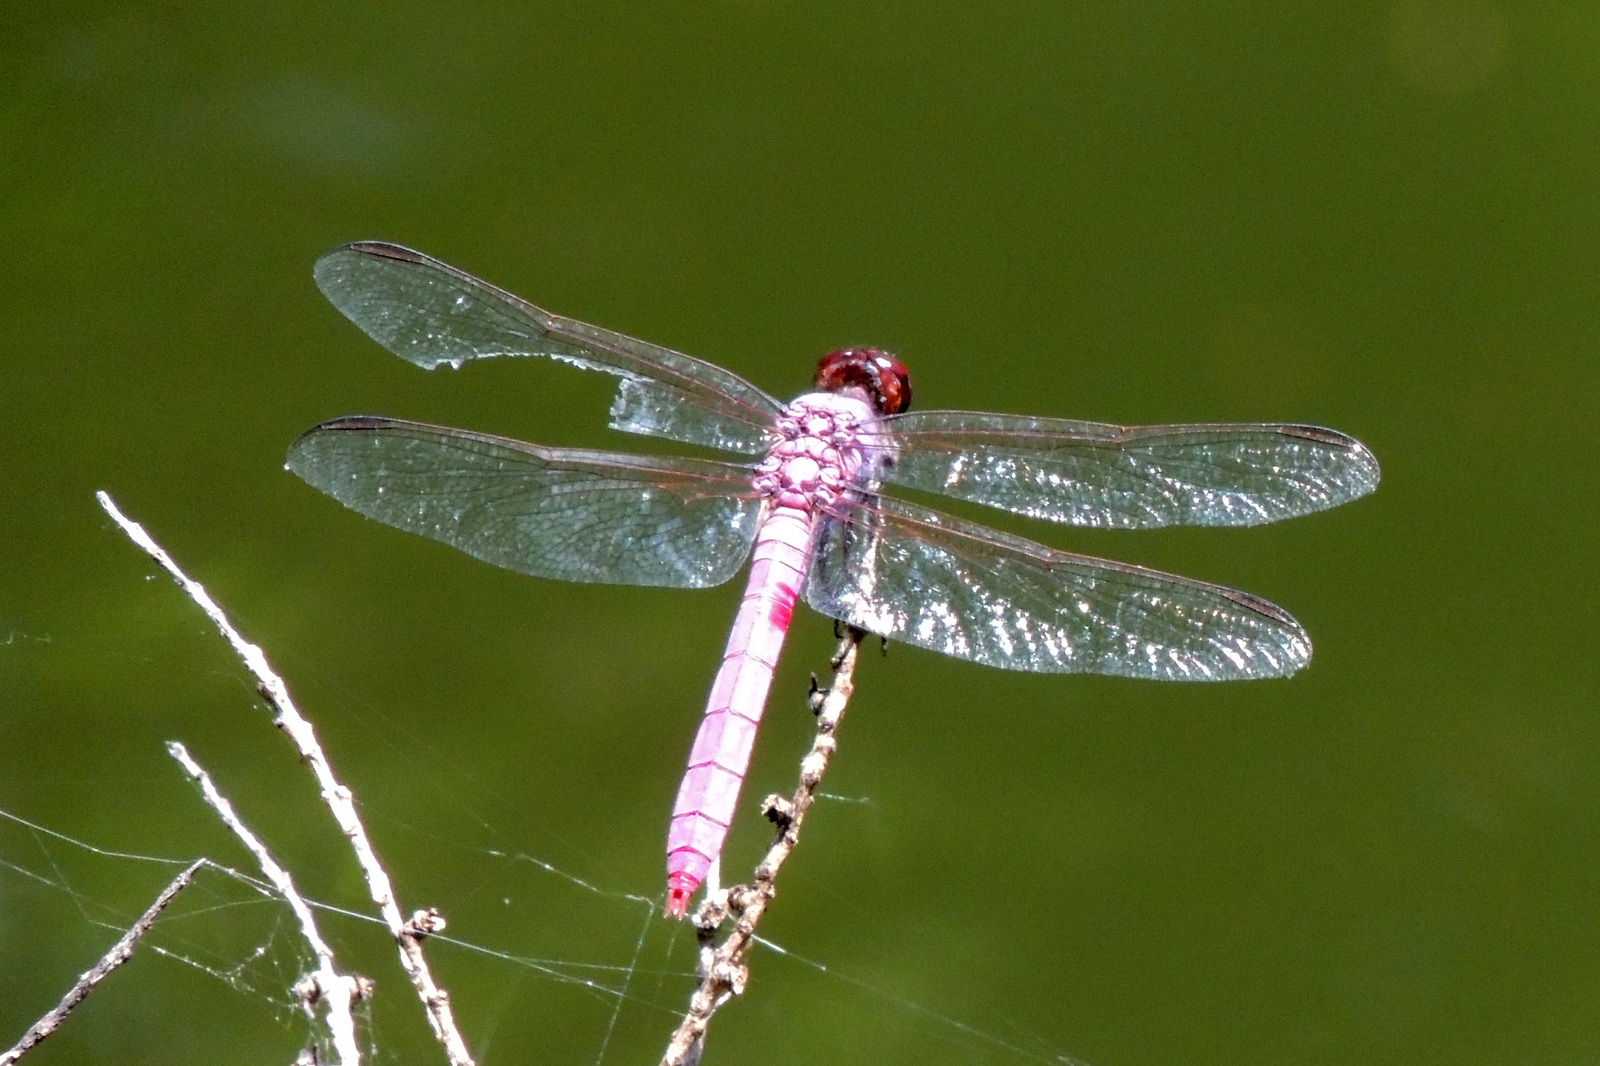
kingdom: Animalia
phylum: Arthropoda
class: Insecta
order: Odonata
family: Libellulidae
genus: Orthemis
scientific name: Orthemis ferruginea
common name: Roseate skimmer
